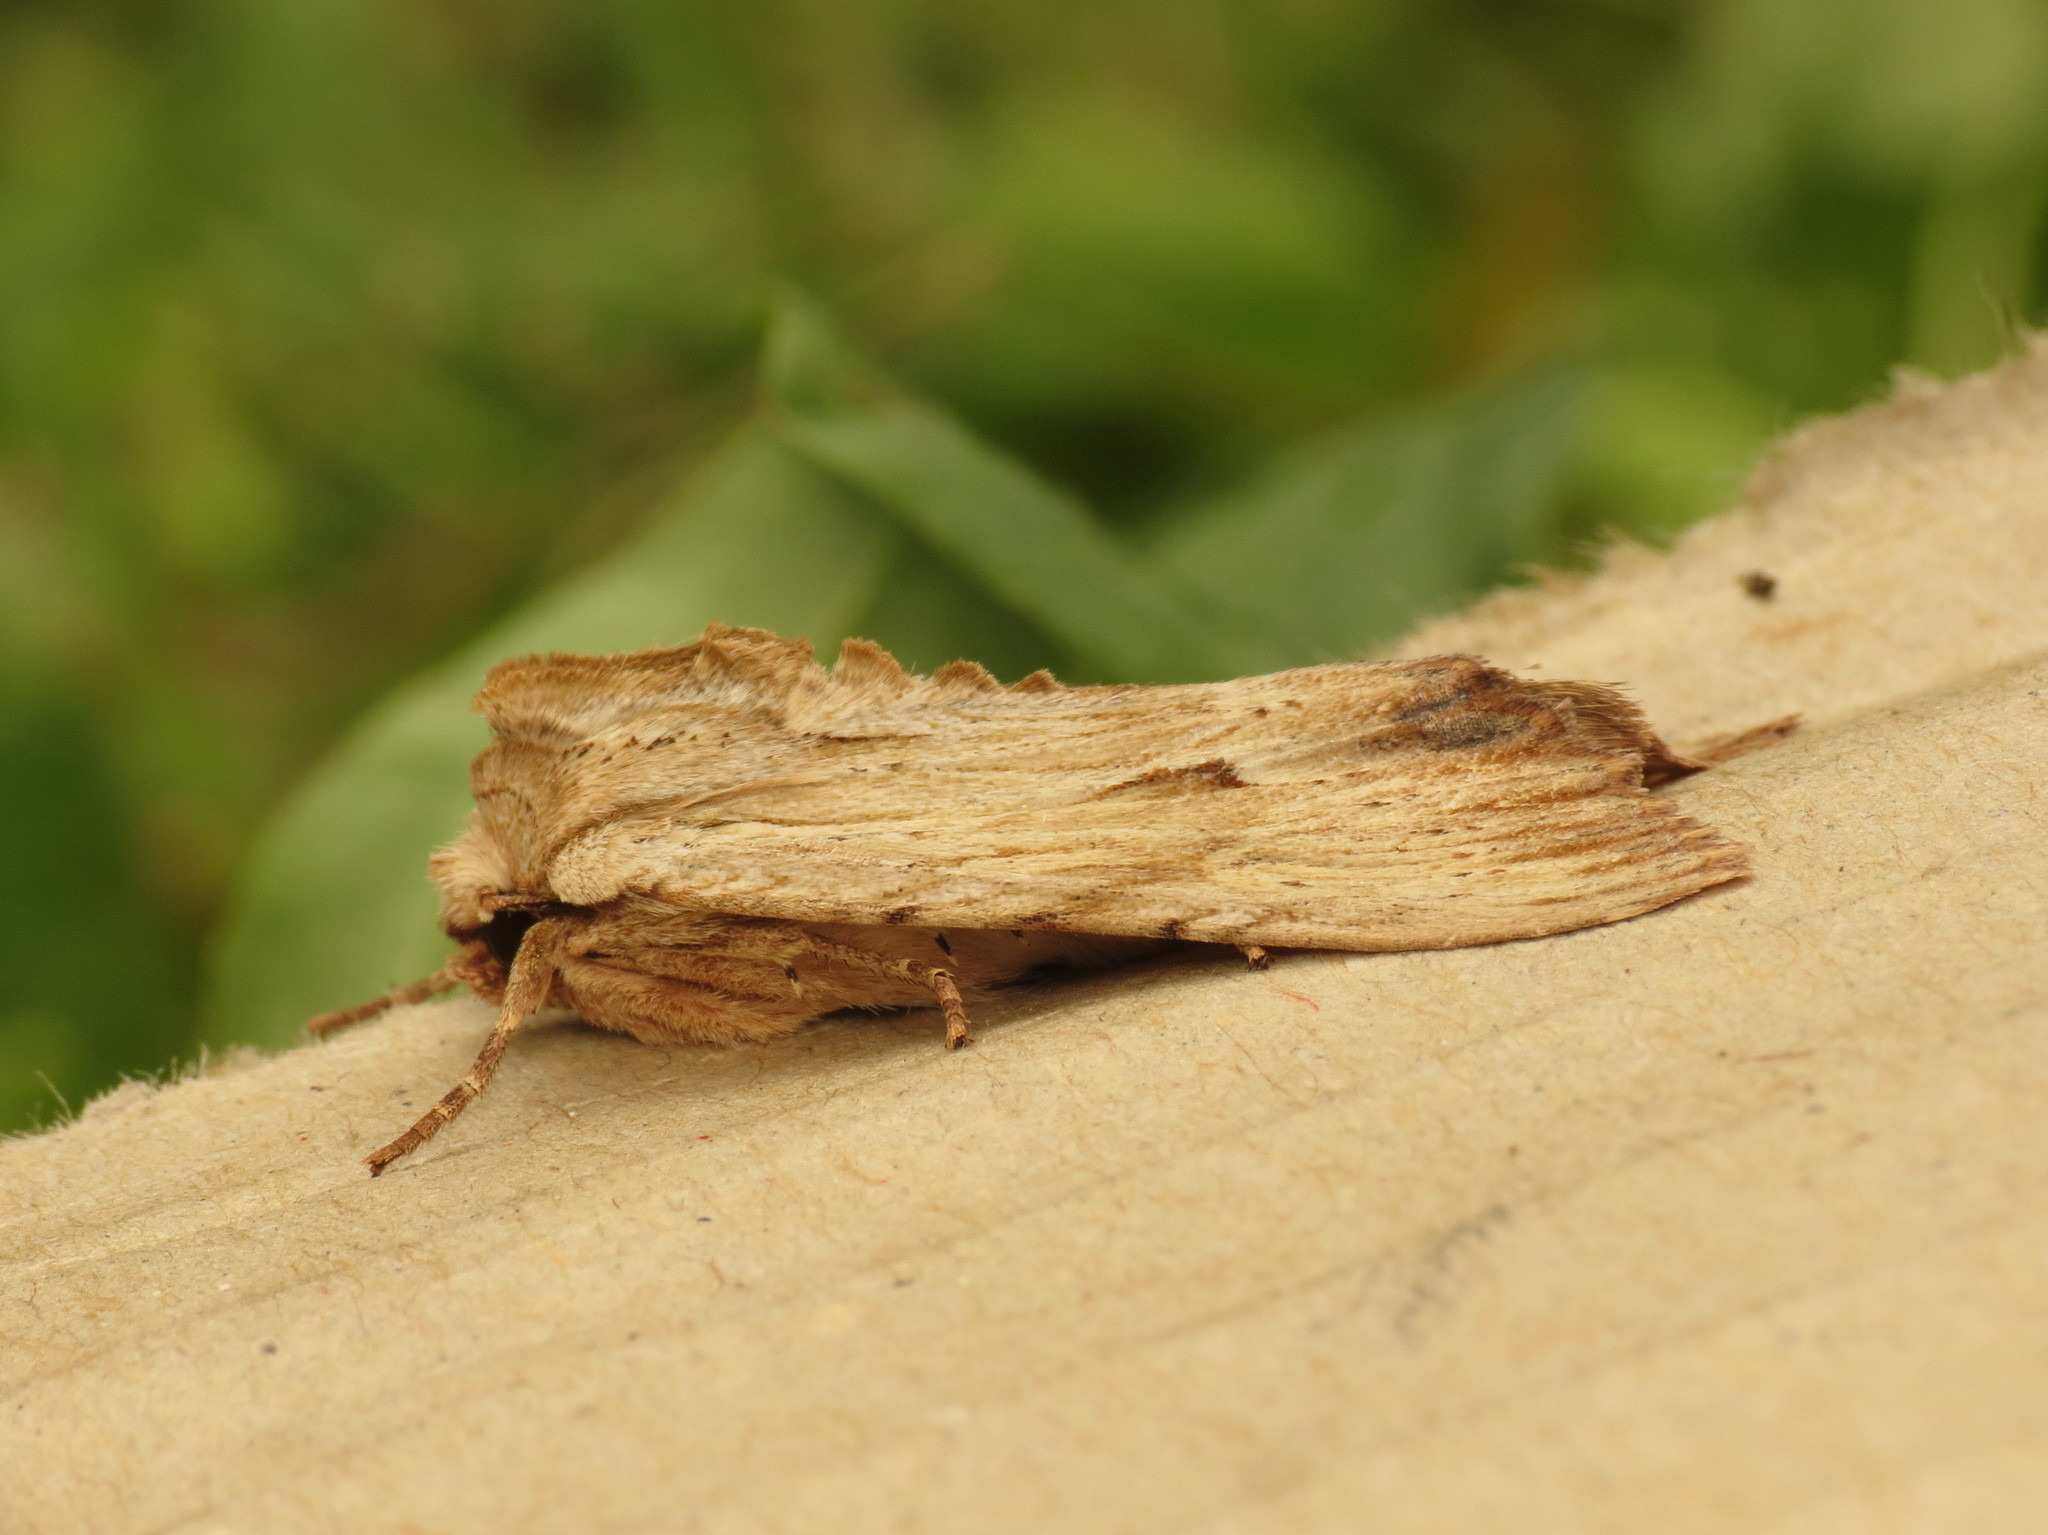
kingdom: Animalia
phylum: Arthropoda
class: Insecta
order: Lepidoptera
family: Noctuidae
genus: Apamea
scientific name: Apamea lithoxylaea
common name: Light arches
